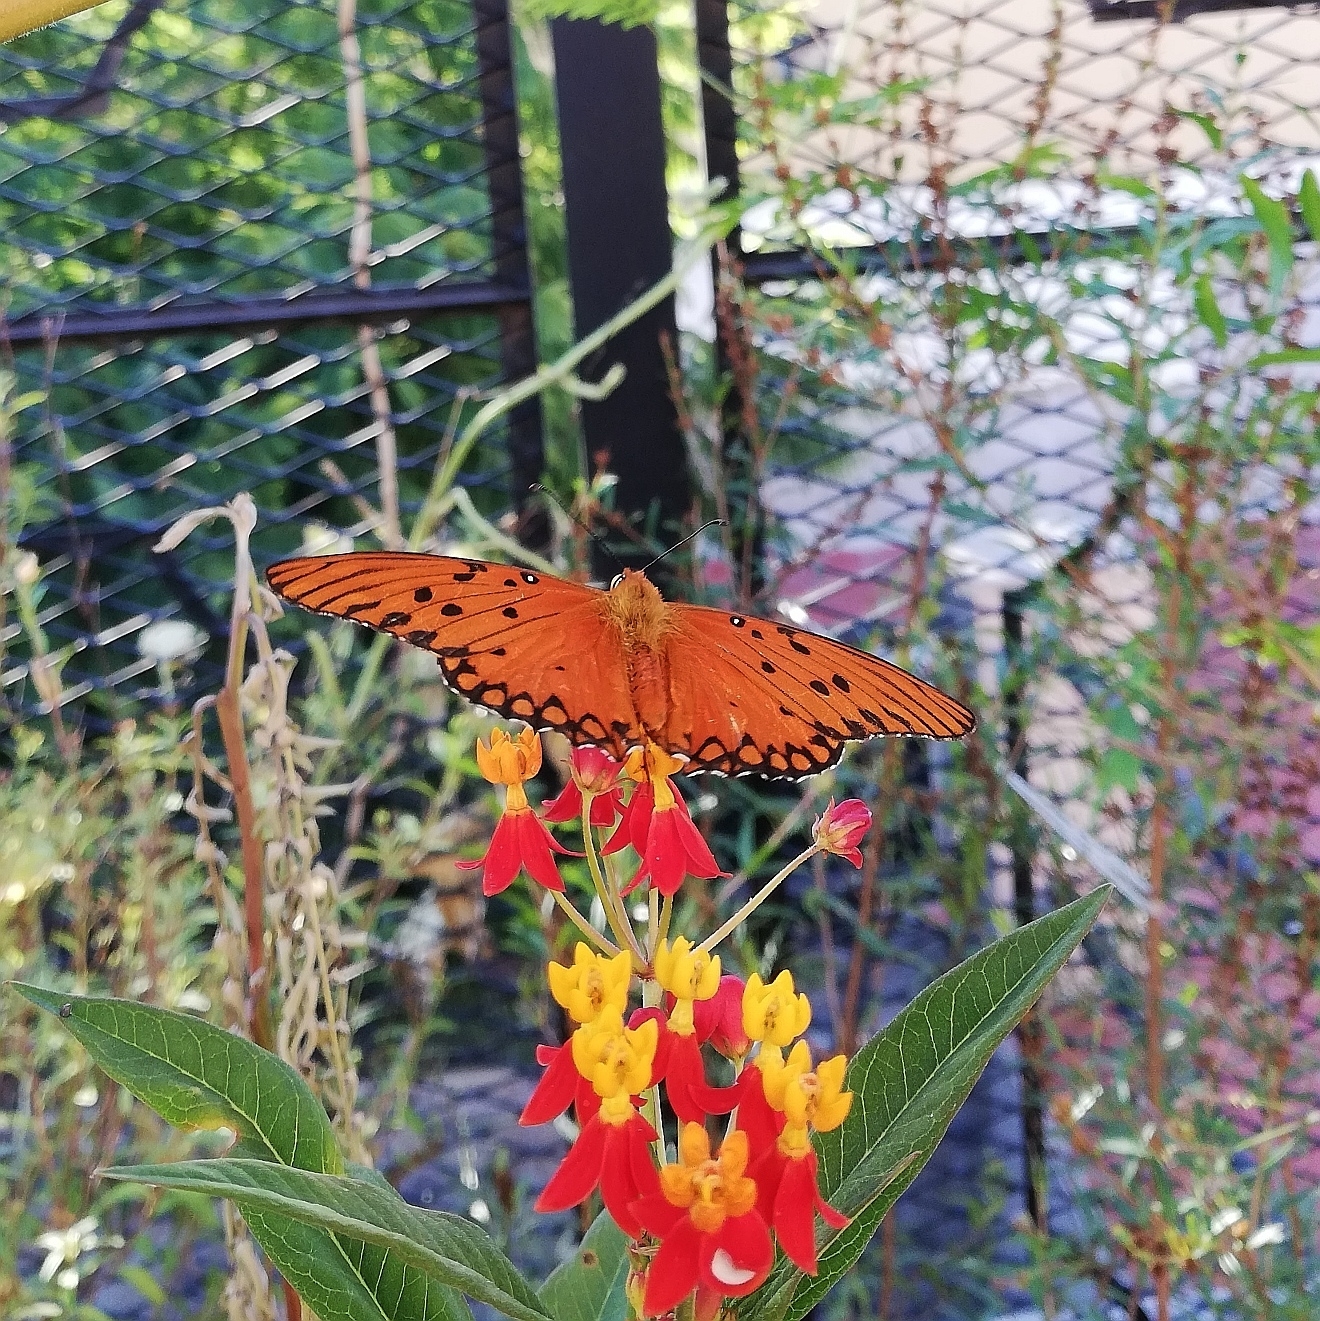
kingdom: Animalia
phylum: Arthropoda
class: Insecta
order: Lepidoptera
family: Nymphalidae
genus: Dione
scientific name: Dione vanillae
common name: Gulf fritillary
